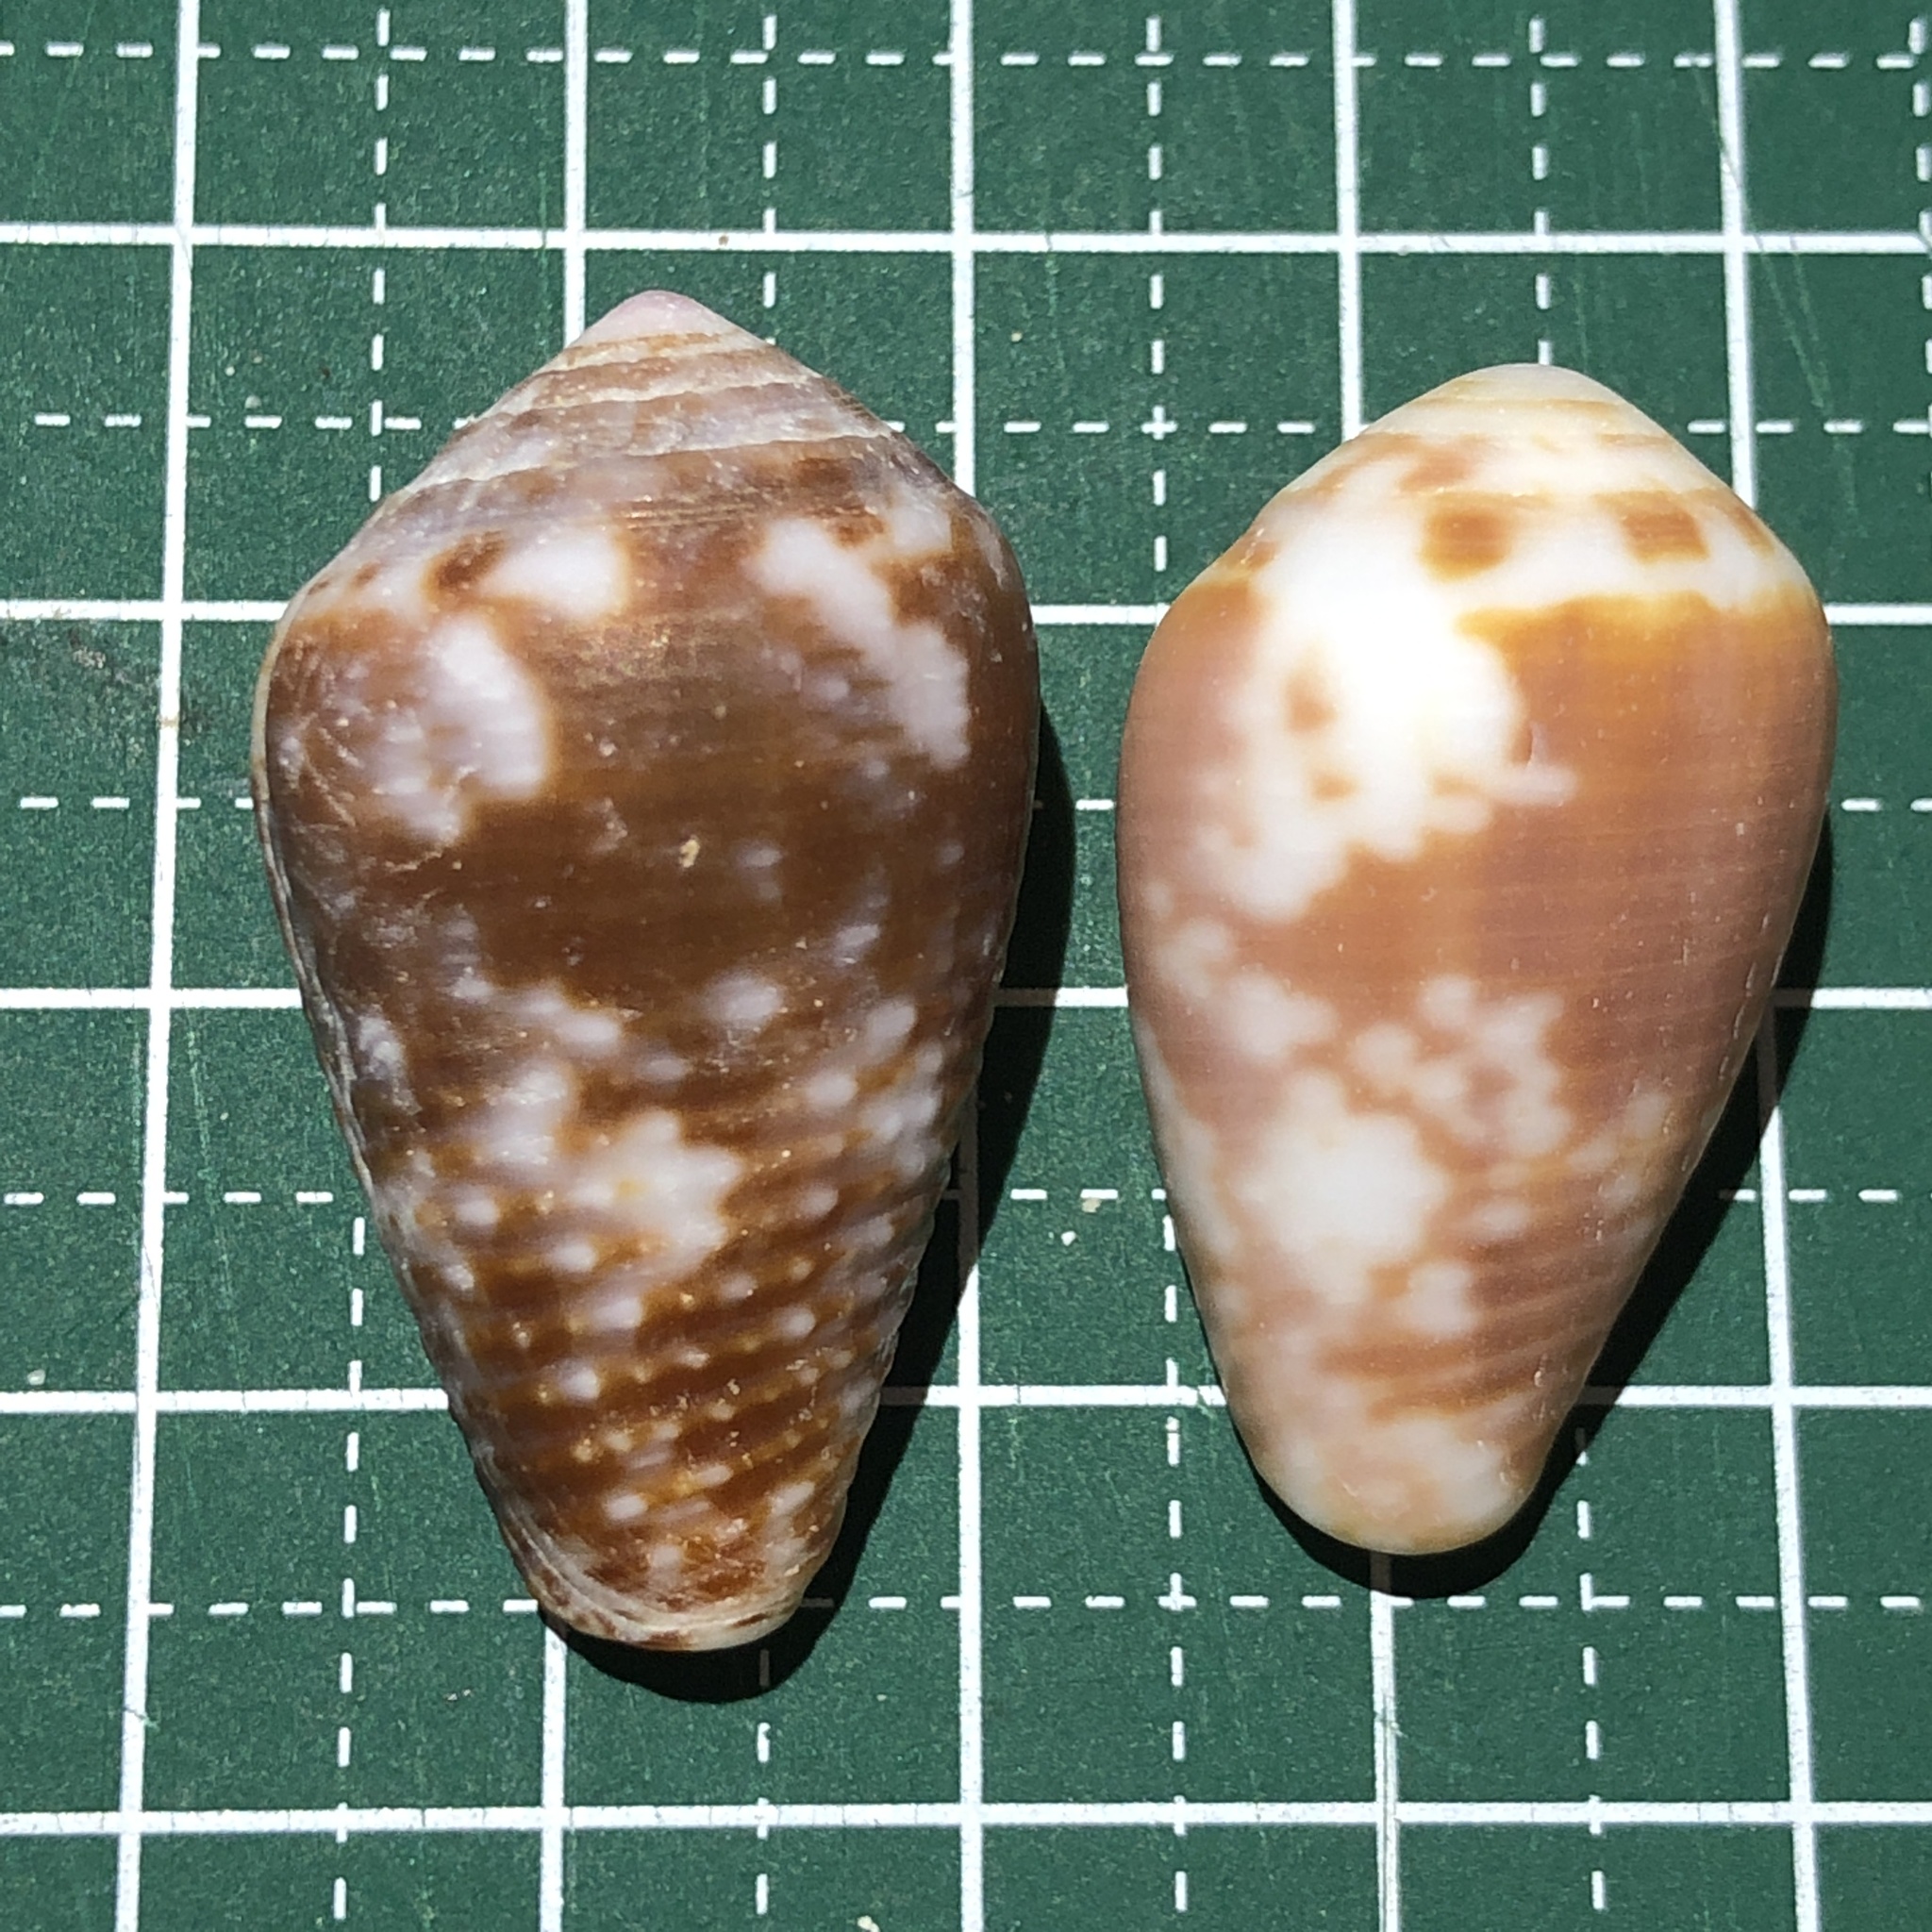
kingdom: Animalia
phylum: Mollusca
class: Gastropoda
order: Neogastropoda
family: Conidae
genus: Conus
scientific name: Conus catus
